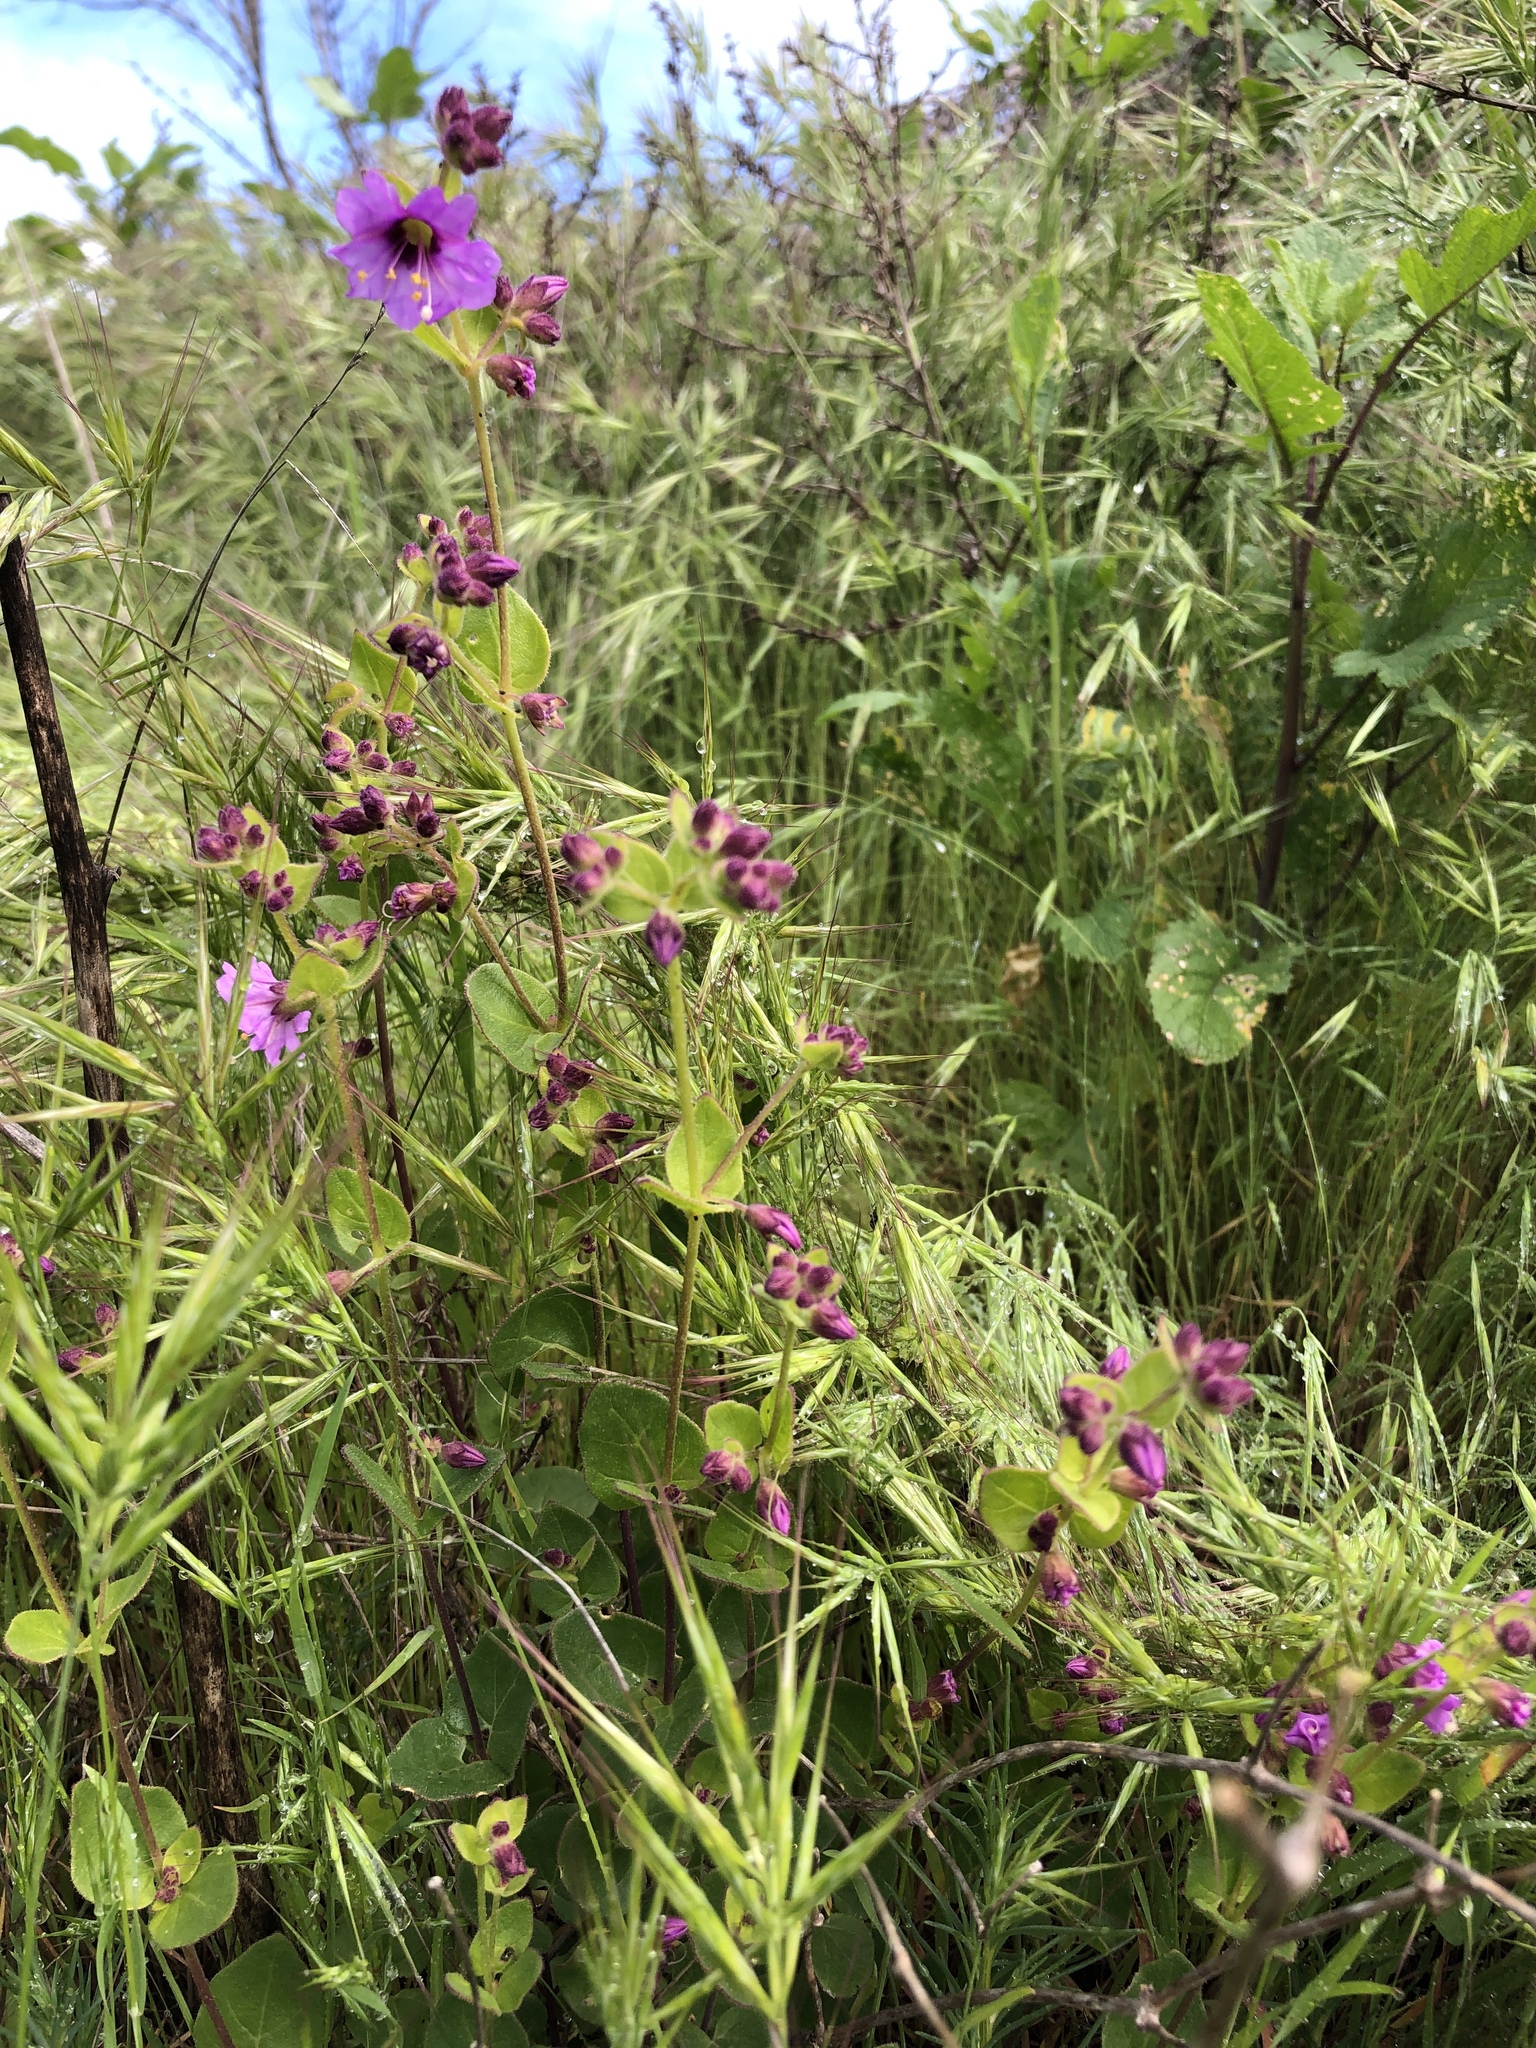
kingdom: Plantae
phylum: Tracheophyta
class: Magnoliopsida
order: Caryophyllales
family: Nyctaginaceae
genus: Mirabilis
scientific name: Mirabilis laevis
